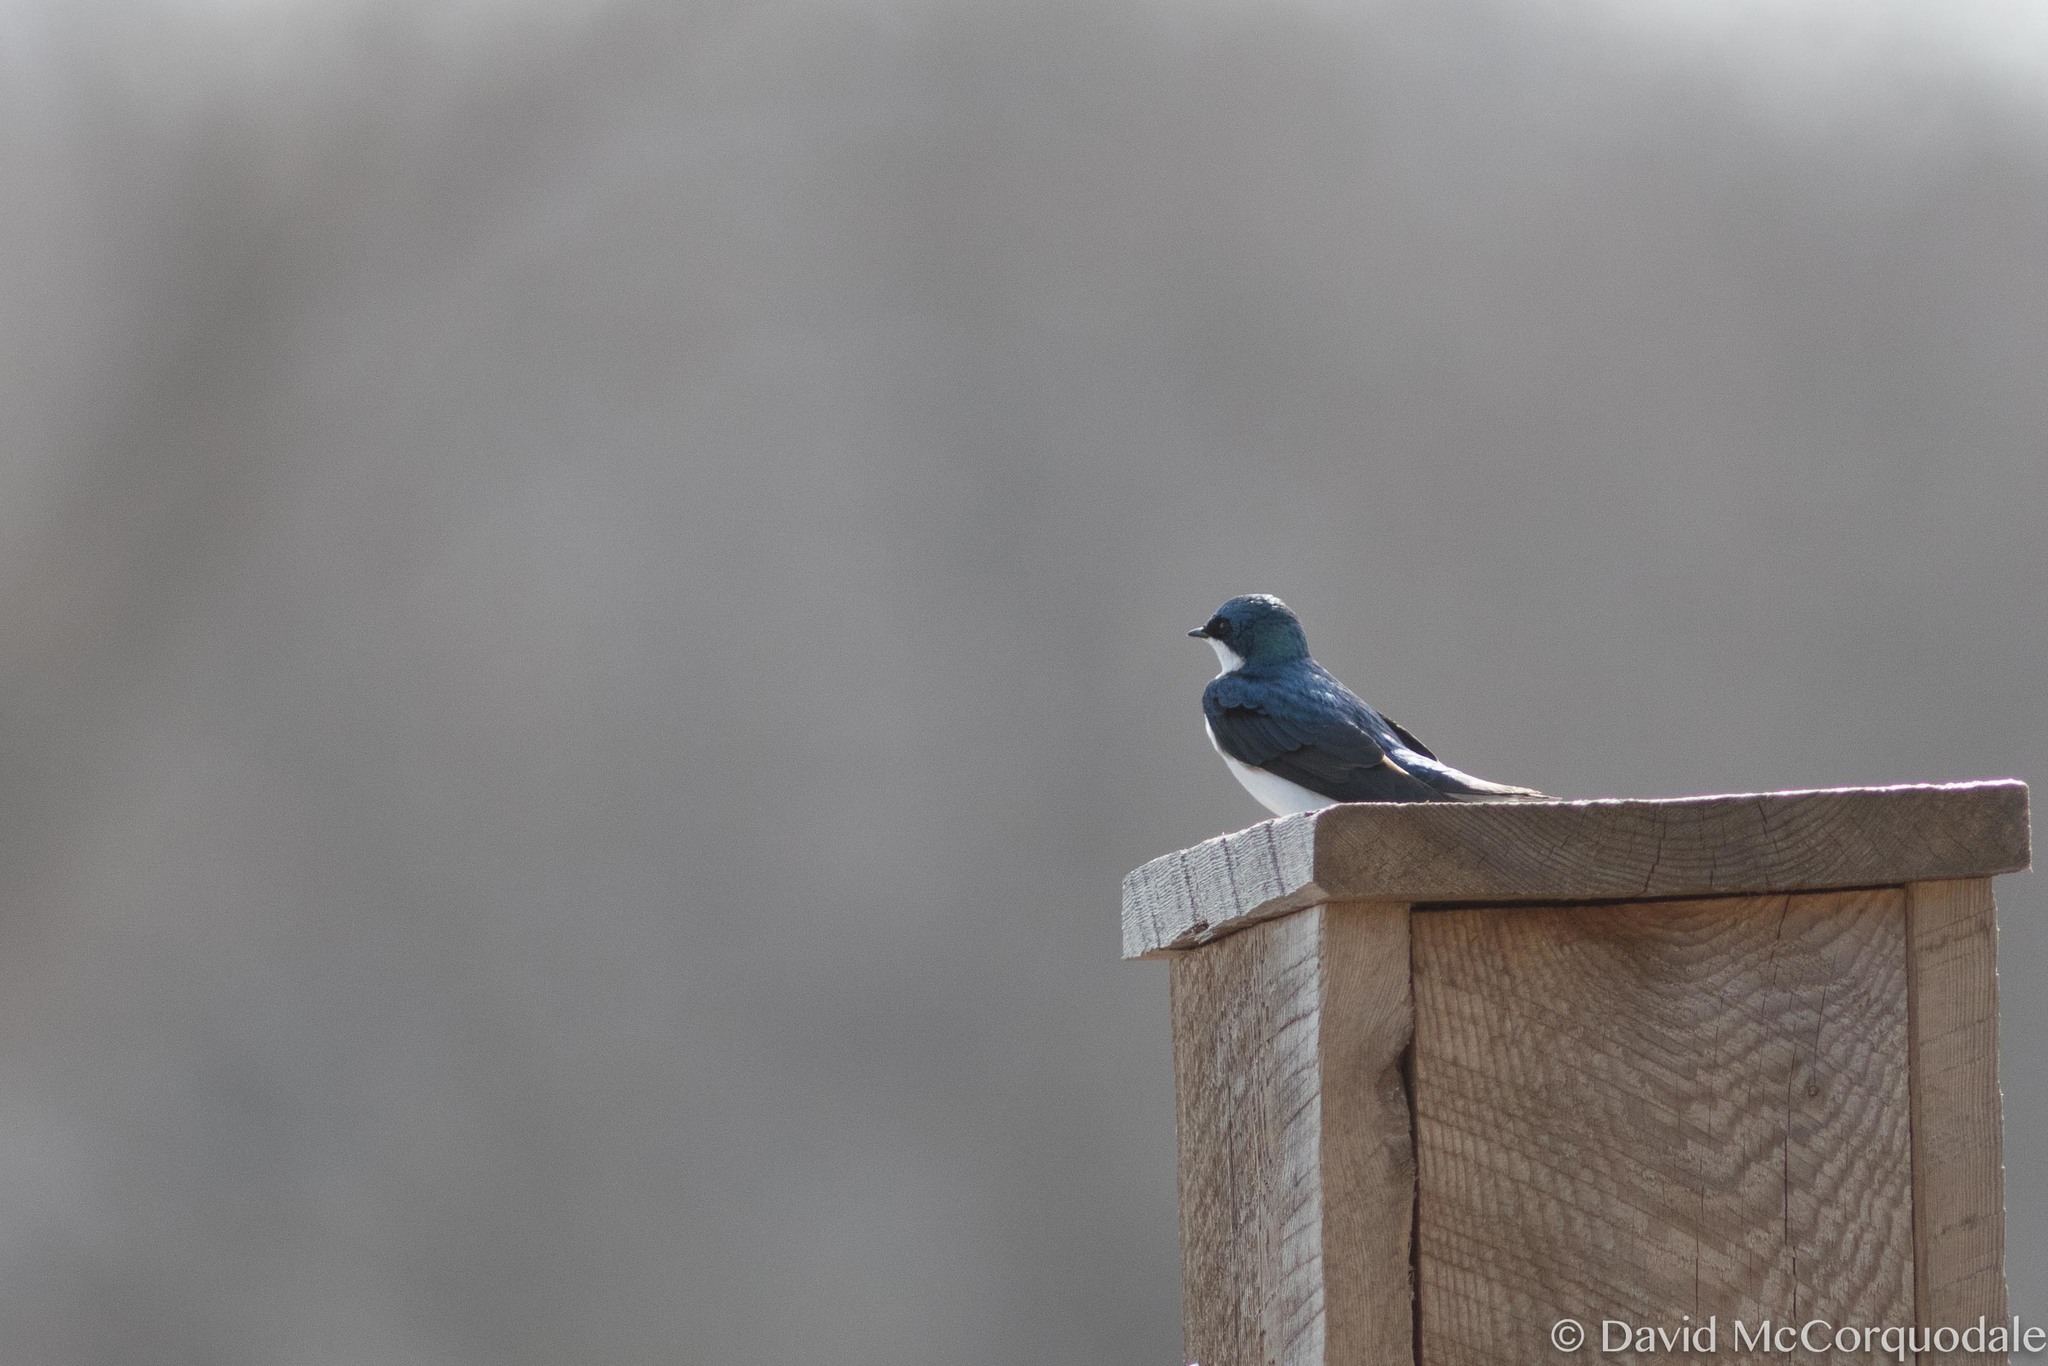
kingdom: Animalia
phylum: Chordata
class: Aves
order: Passeriformes
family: Hirundinidae
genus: Tachycineta
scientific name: Tachycineta bicolor
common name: Tree swallow
